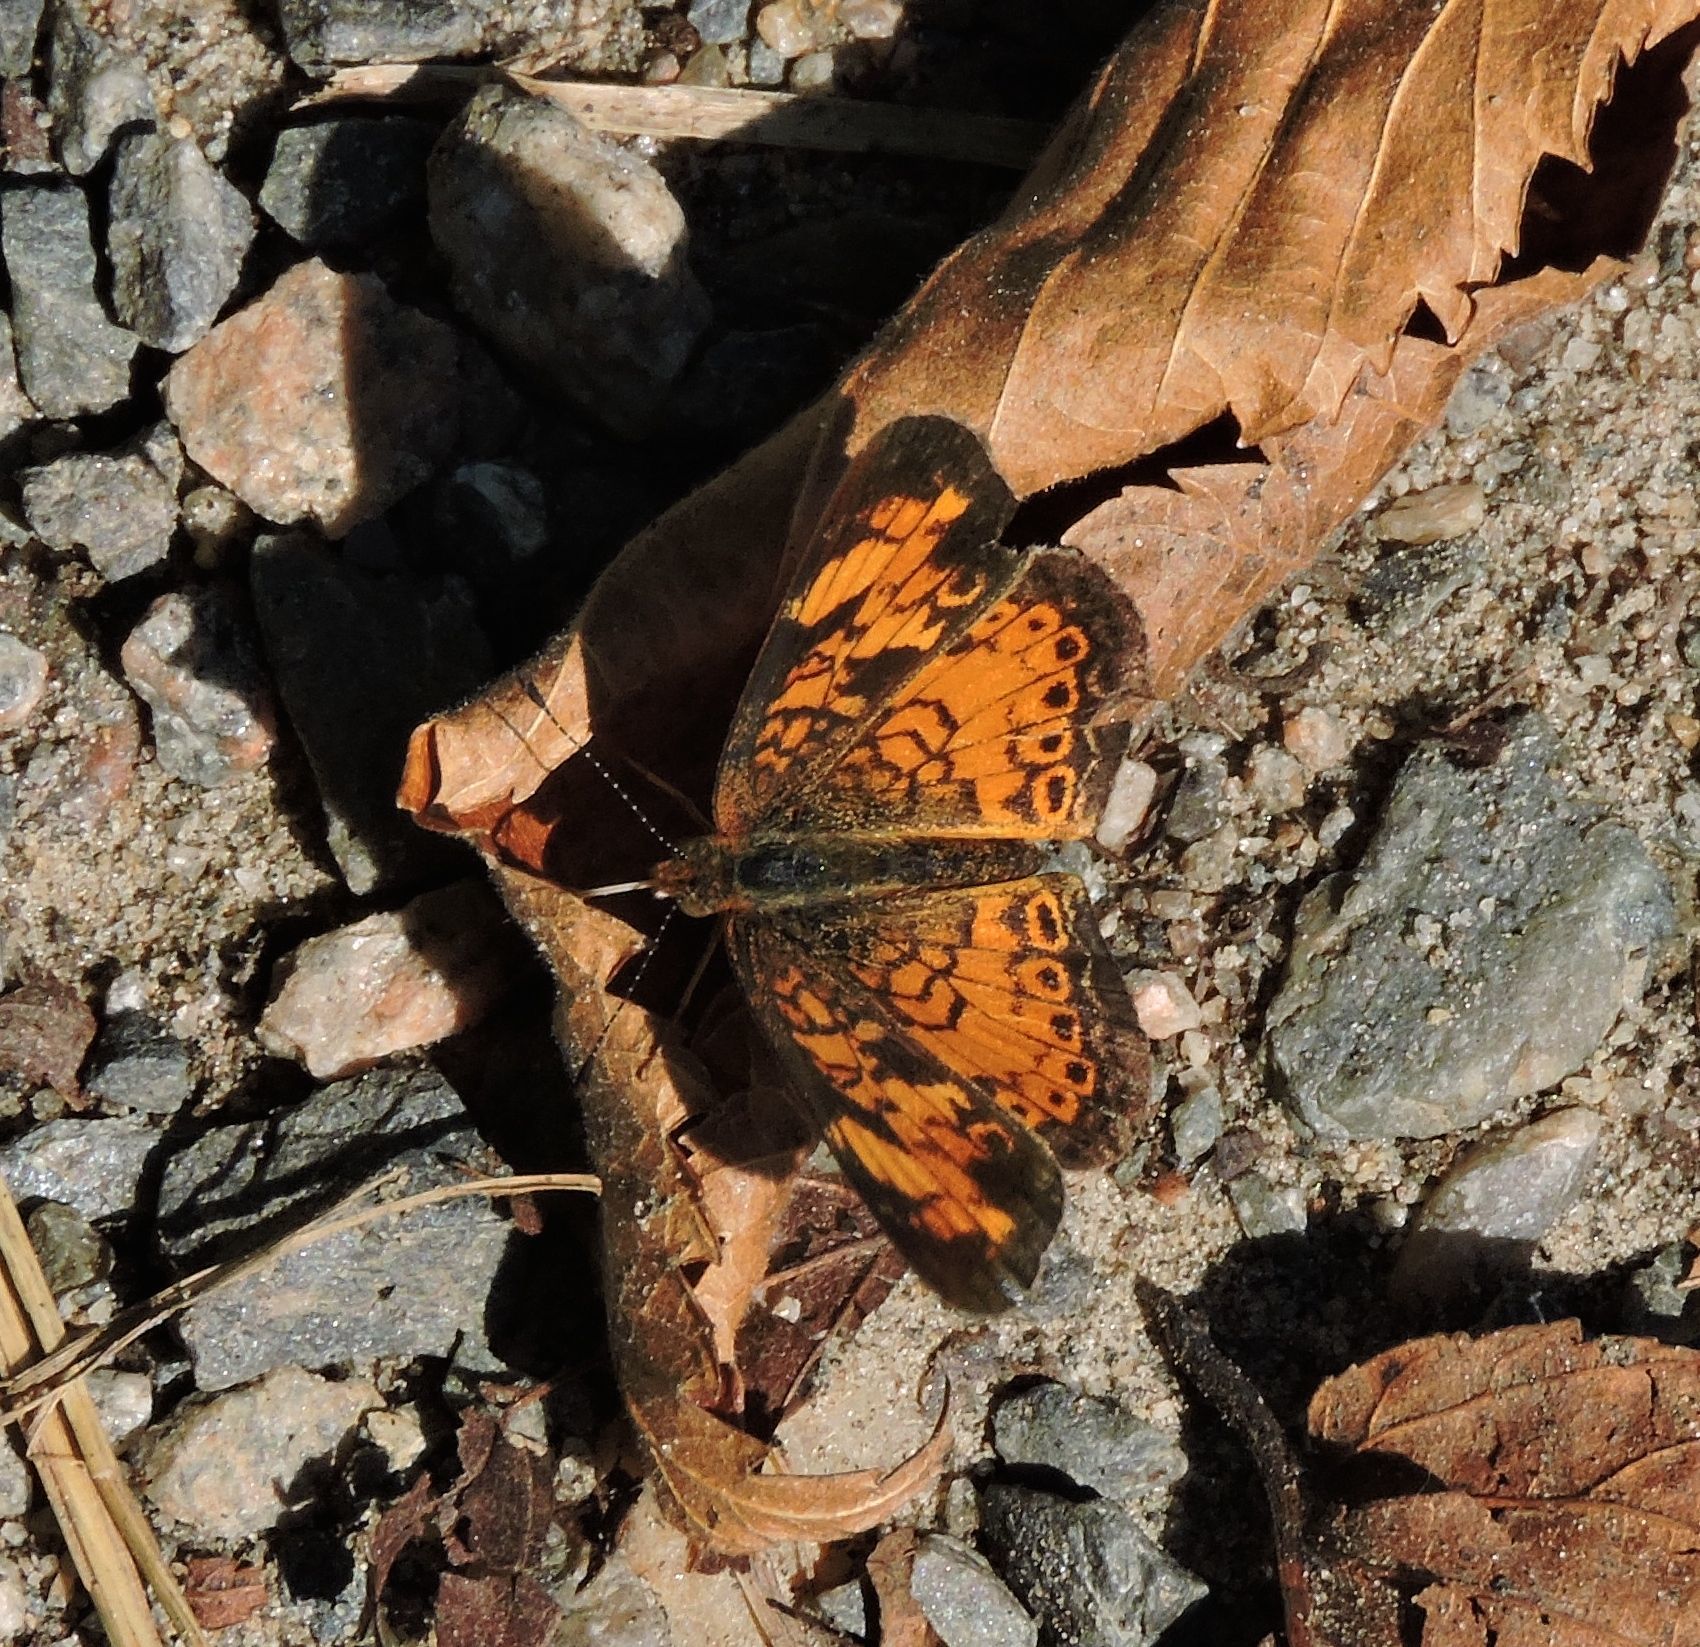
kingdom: Animalia
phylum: Arthropoda
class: Insecta
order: Lepidoptera
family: Nymphalidae
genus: Phyciodes
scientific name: Phyciodes tharos
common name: Pearl crescent
